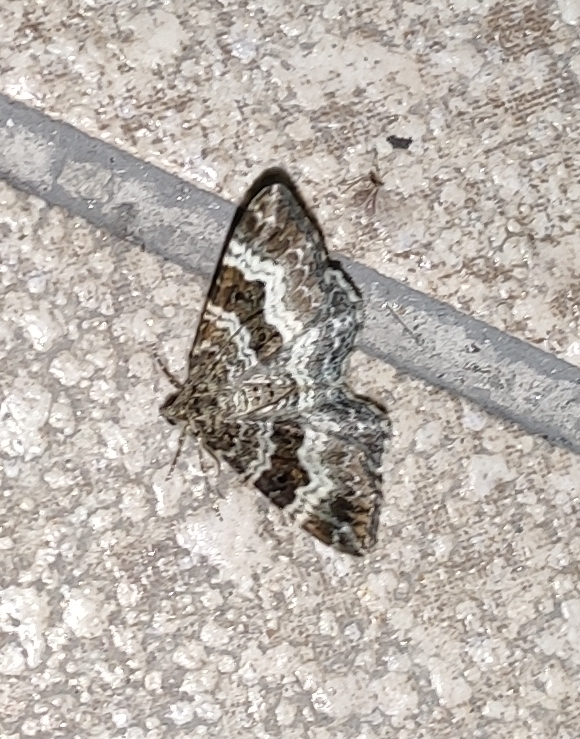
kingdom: Animalia
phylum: Arthropoda
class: Insecta
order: Lepidoptera
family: Geometridae
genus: Epirrhoe
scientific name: Epirrhoe alternata
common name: Common carpet
